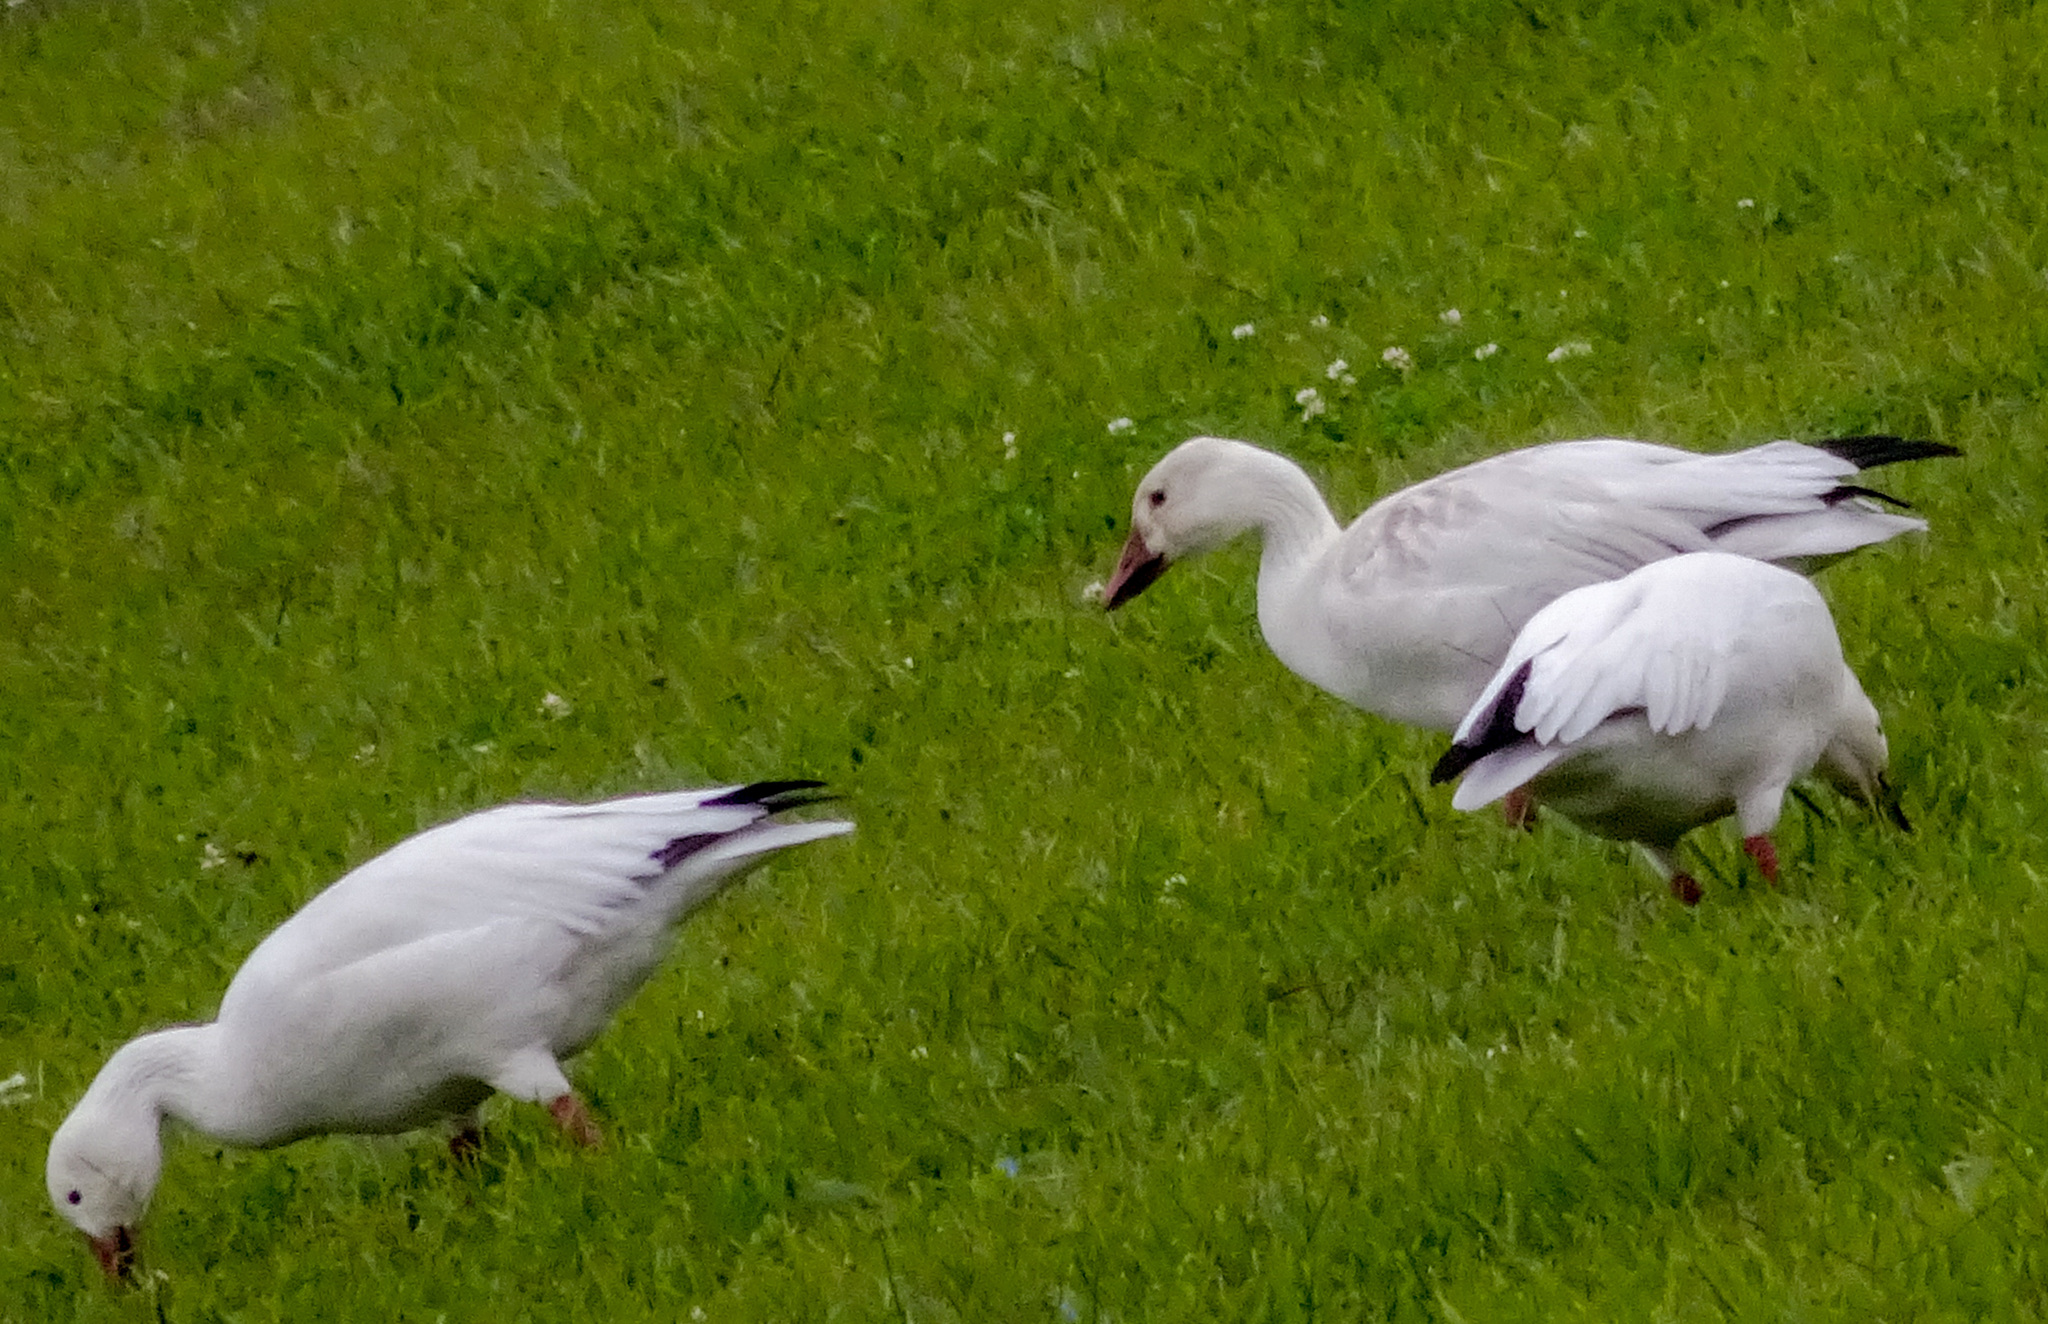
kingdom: Animalia
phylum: Chordata
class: Aves
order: Anseriformes
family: Anatidae
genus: Anser
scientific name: Anser caerulescens
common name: Snow goose
